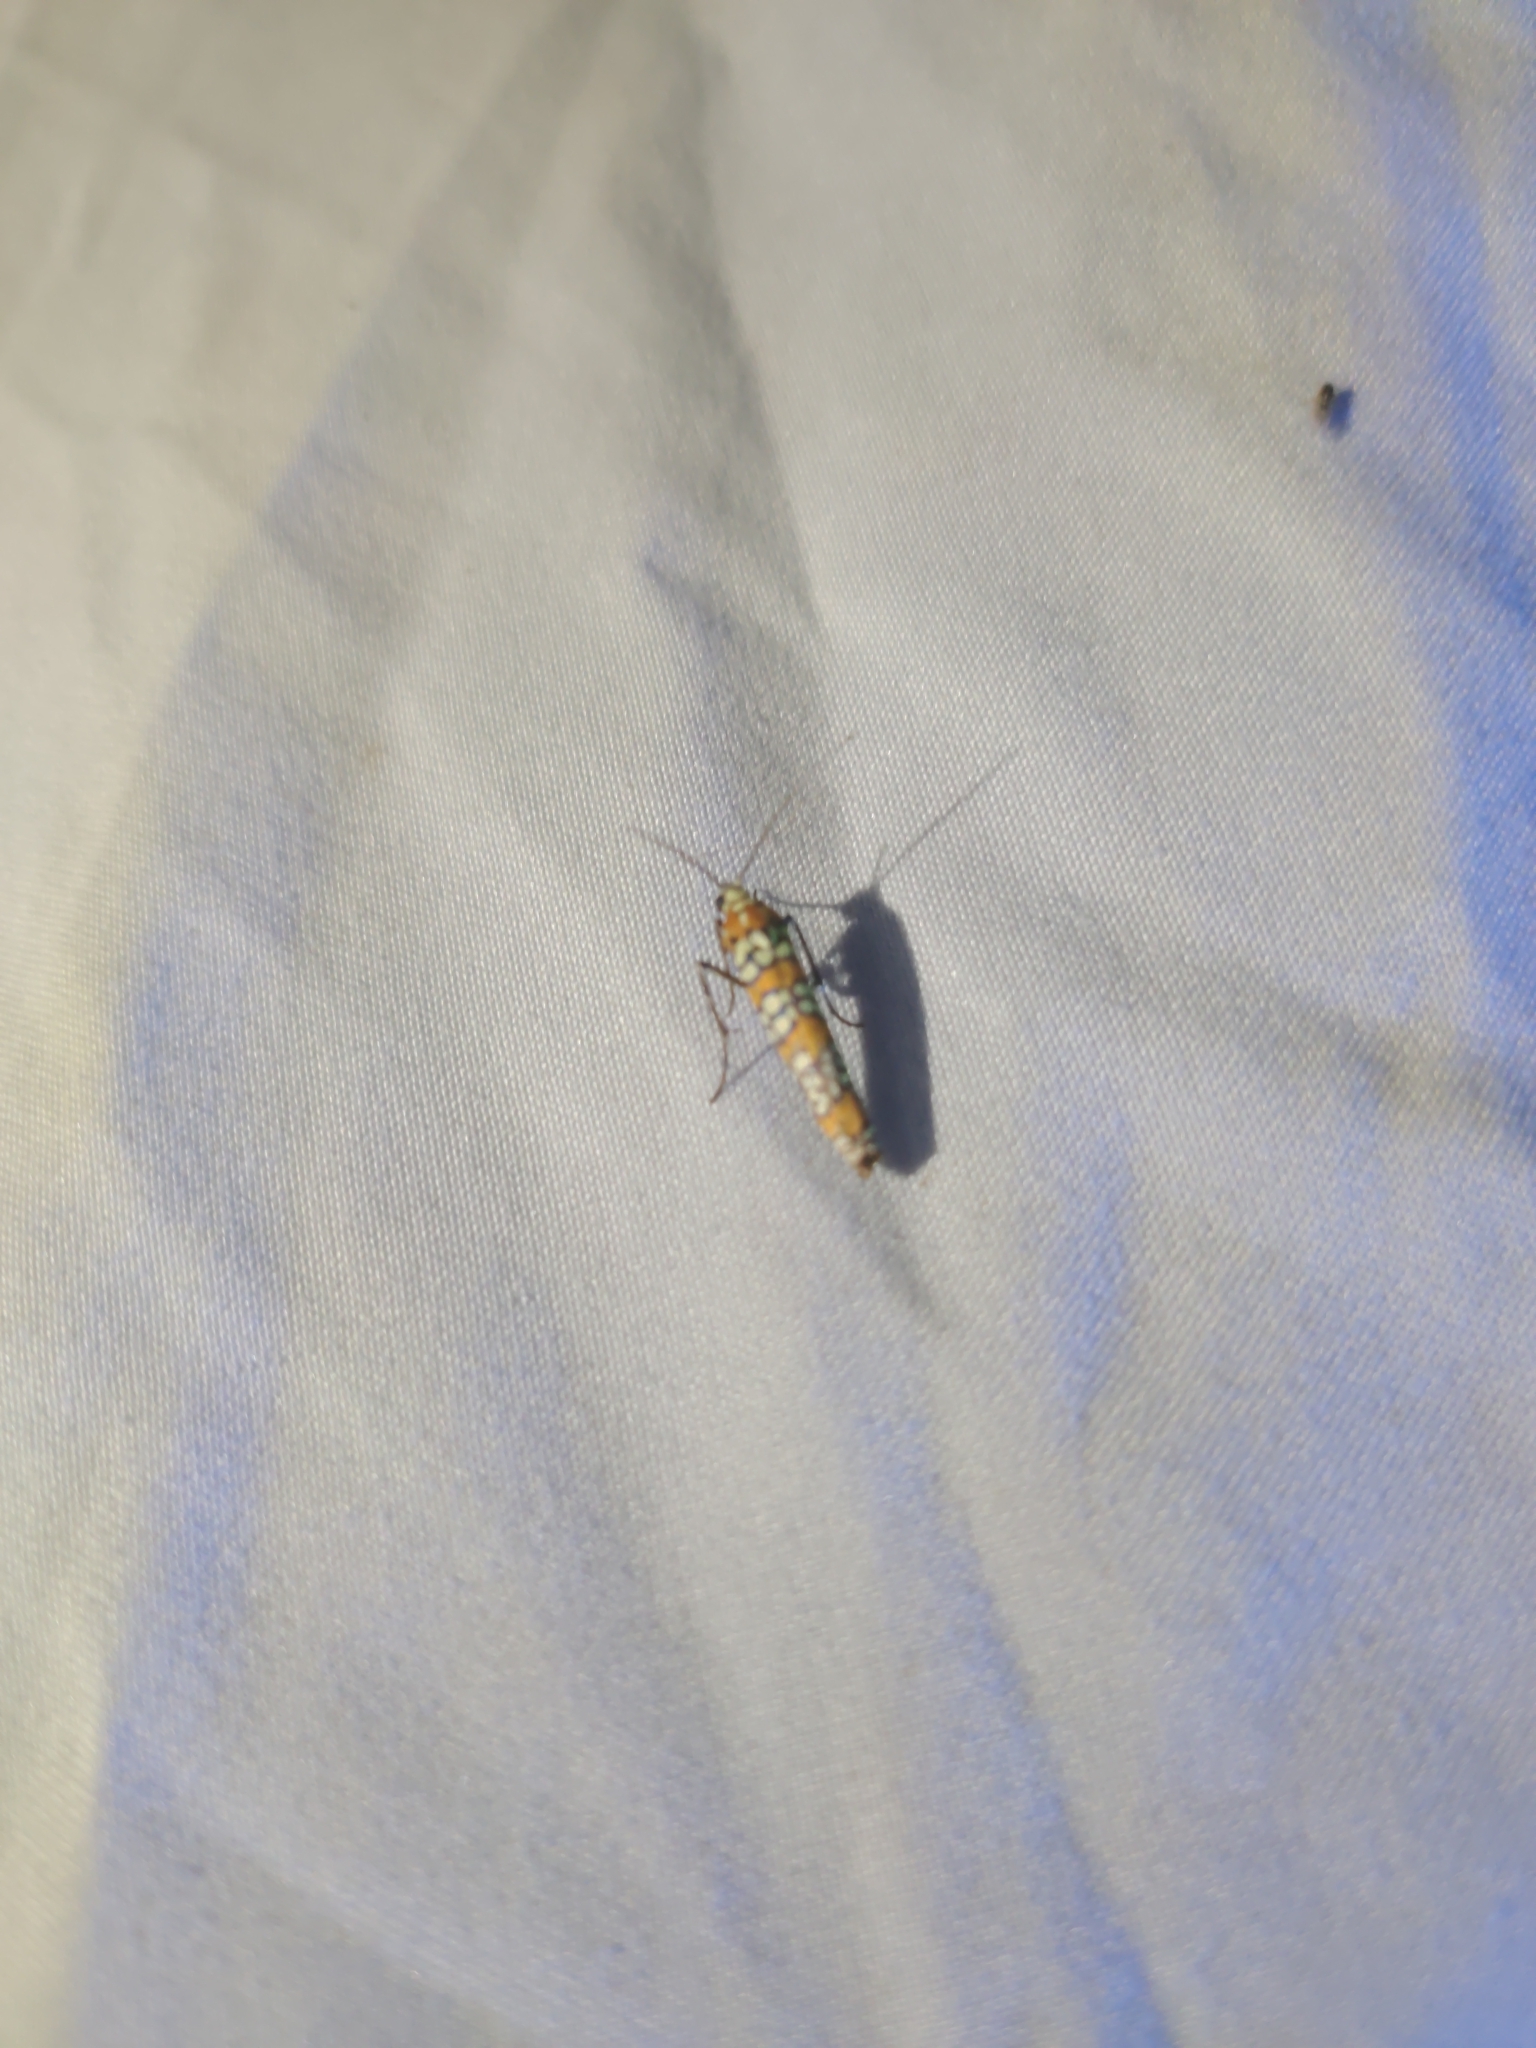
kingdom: Animalia
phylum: Arthropoda
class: Insecta
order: Lepidoptera
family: Attevidae
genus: Atteva
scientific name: Atteva punctella
